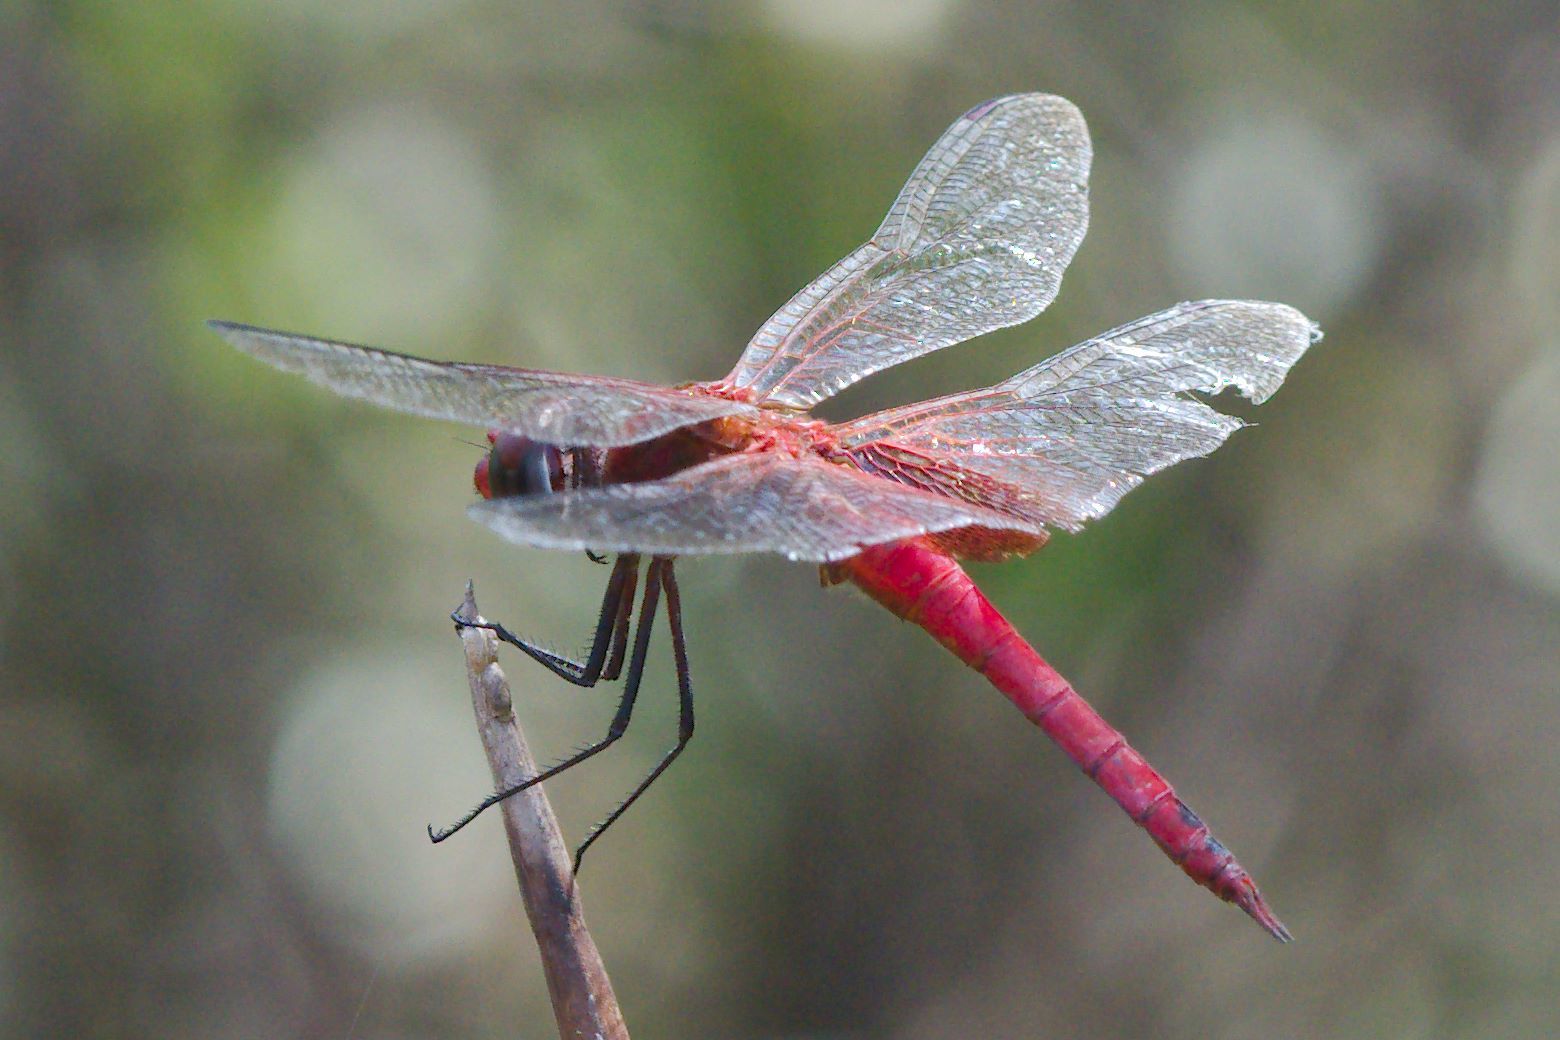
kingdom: Animalia
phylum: Arthropoda
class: Insecta
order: Odonata
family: Libellulidae
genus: Tramea
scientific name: Tramea abdominalis
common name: Vermilion saddlebags
